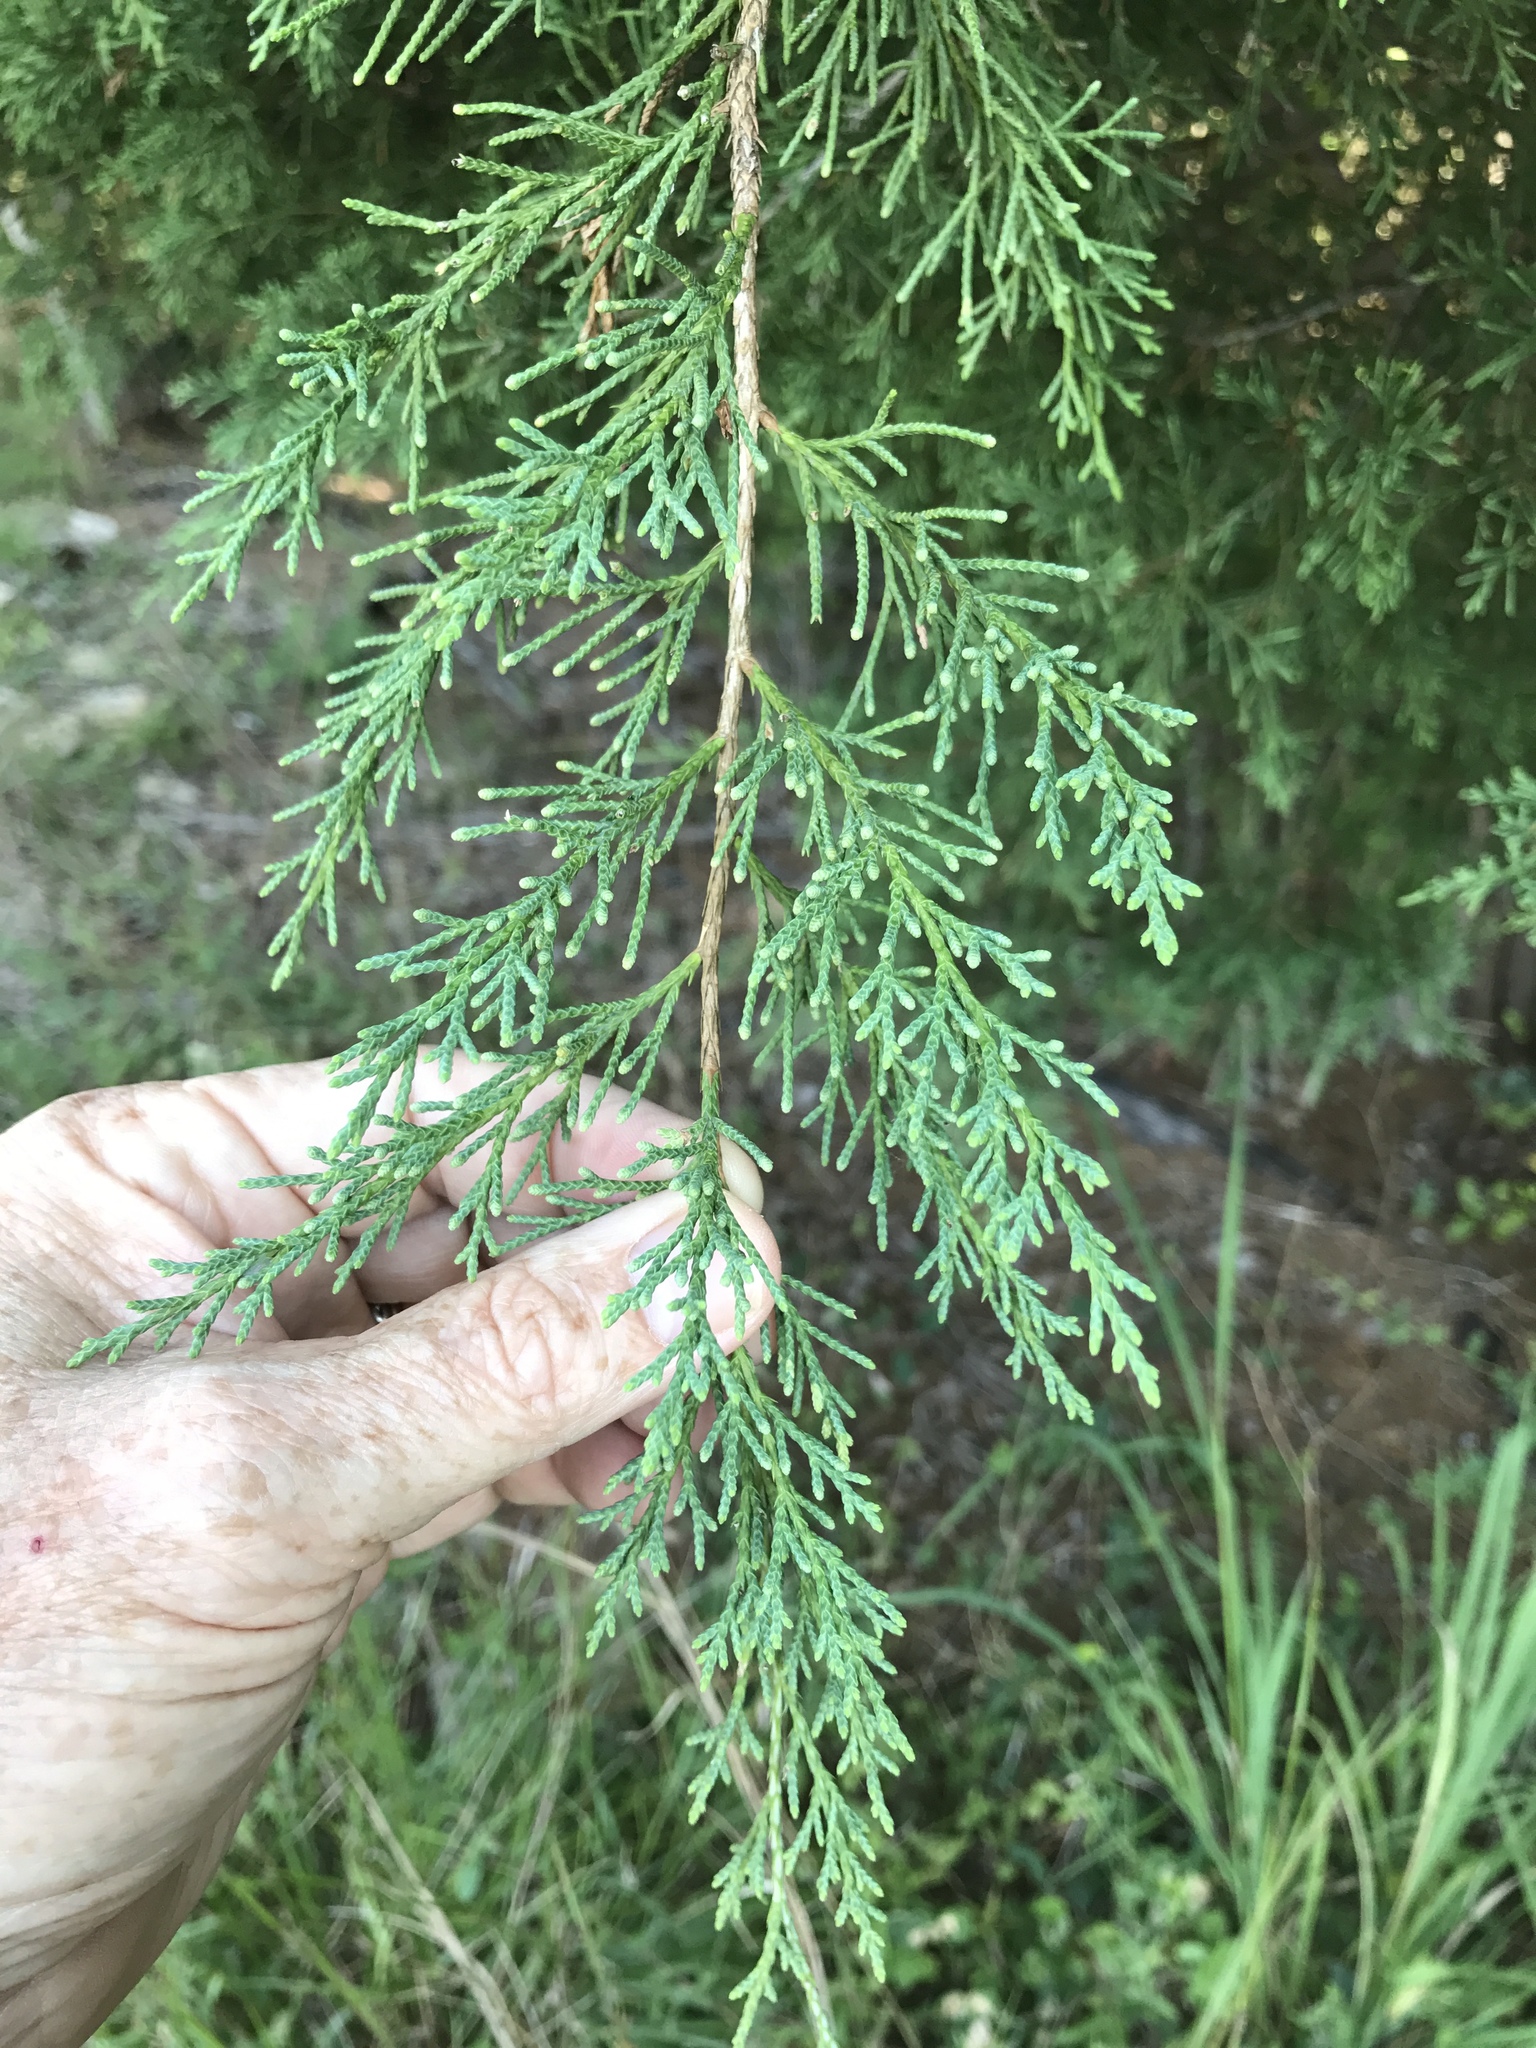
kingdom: Plantae
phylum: Tracheophyta
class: Pinopsida
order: Pinales
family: Cupressaceae
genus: Juniperus
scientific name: Juniperus virginiana
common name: Red juniper
